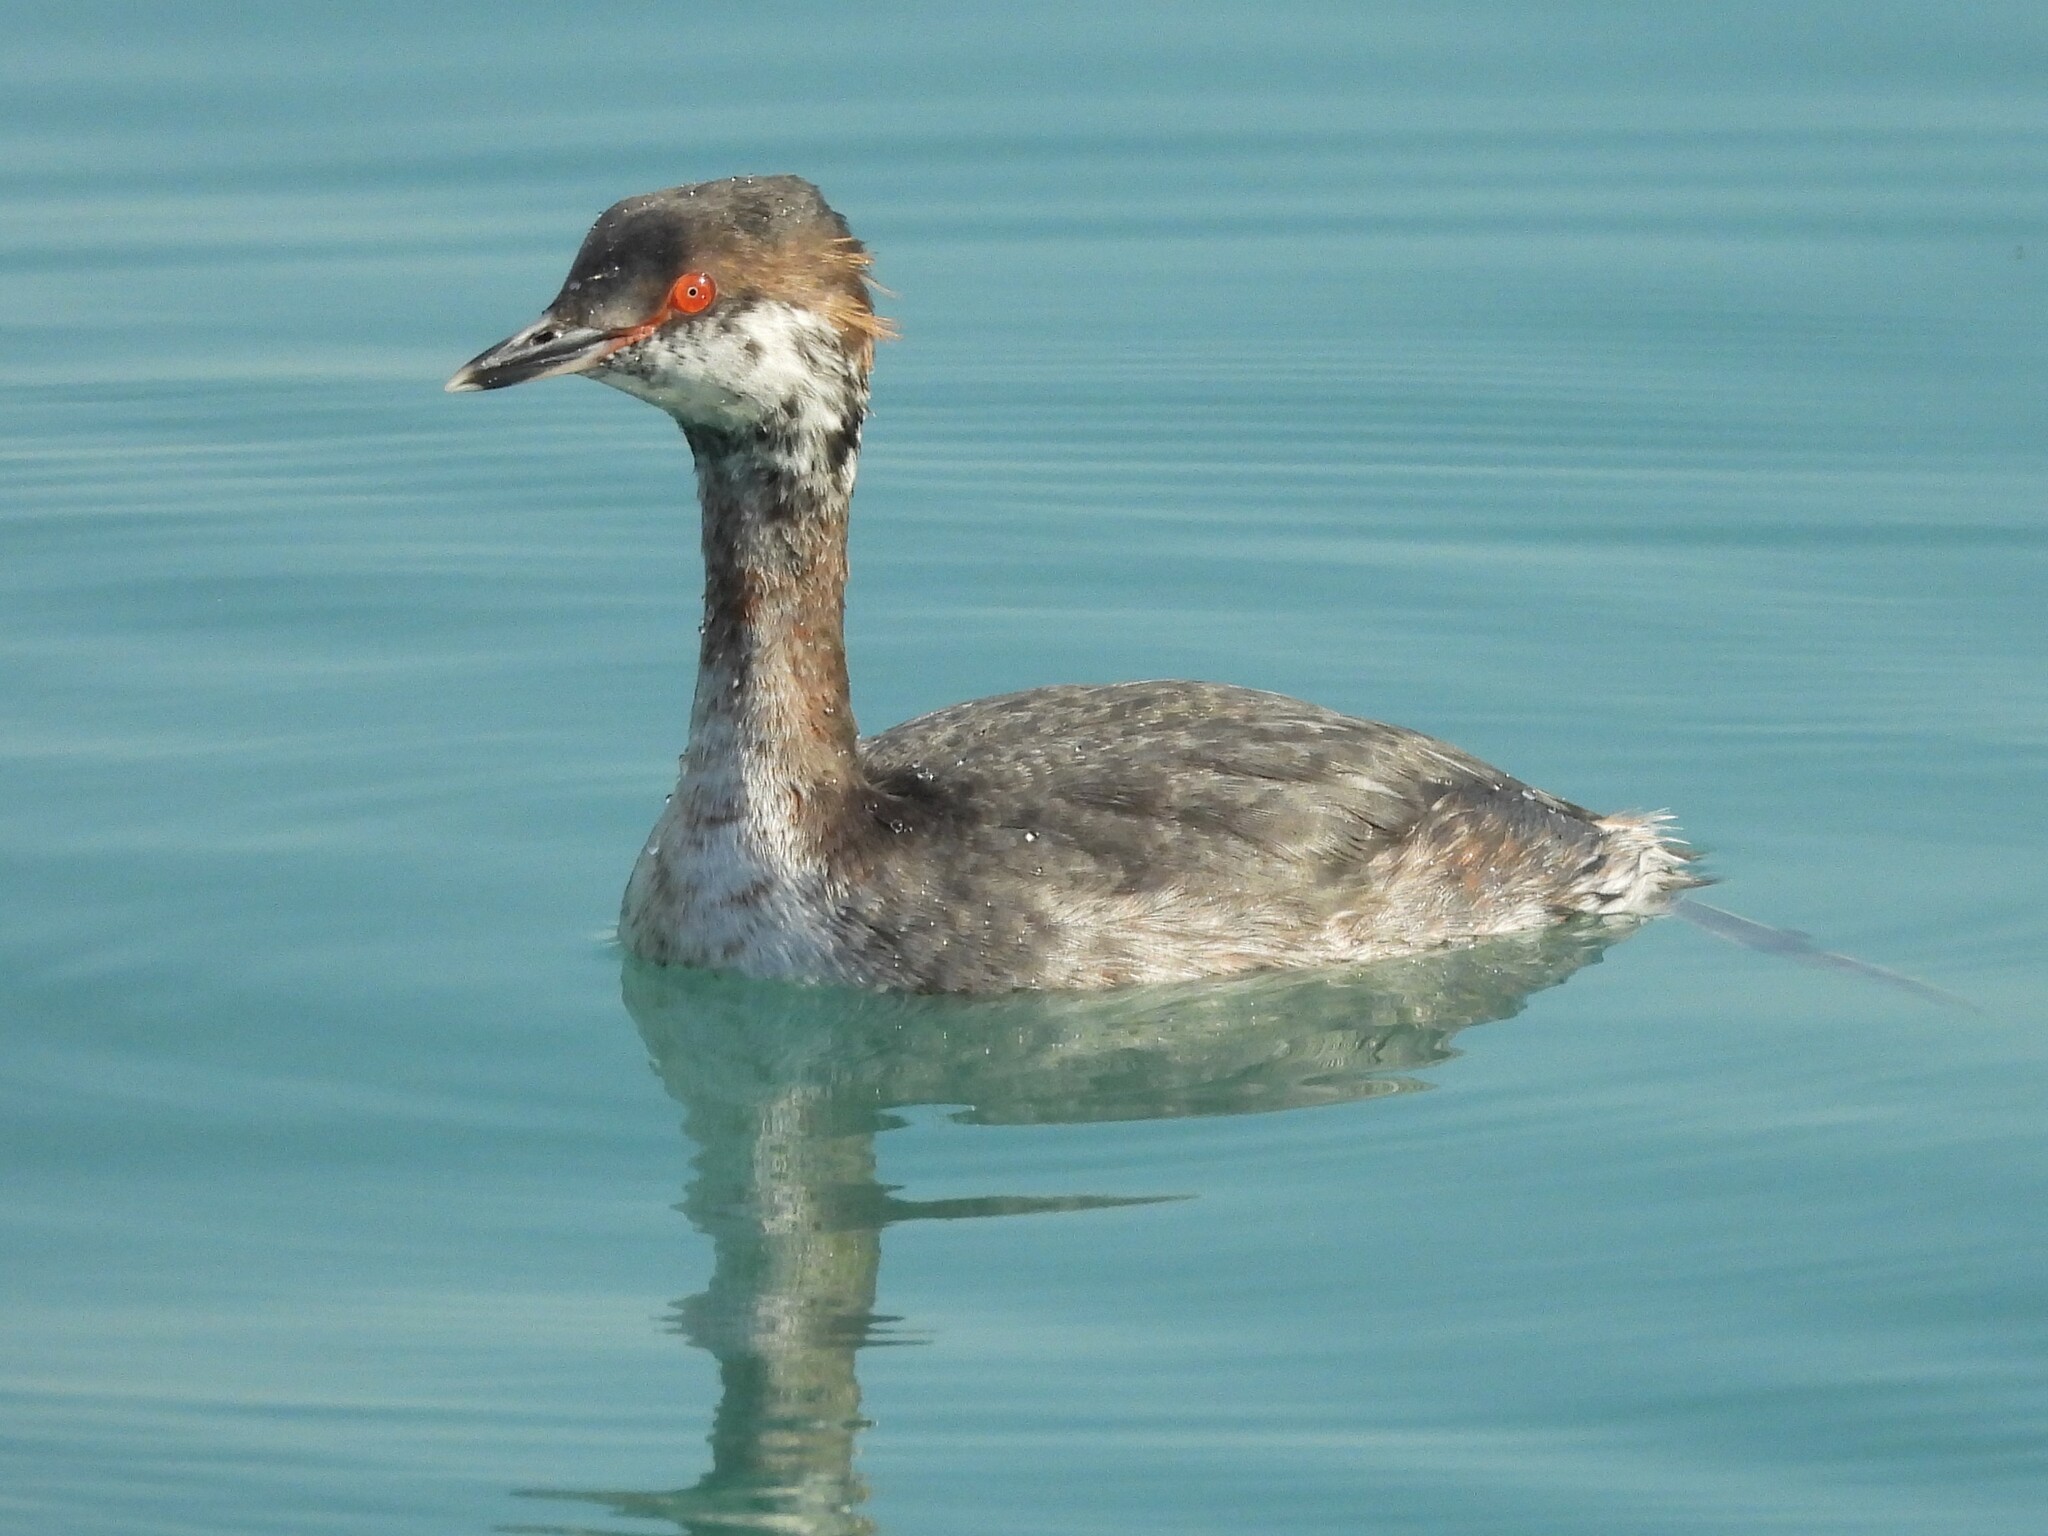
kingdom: Animalia
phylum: Chordata
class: Aves
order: Podicipediformes
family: Podicipedidae
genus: Podiceps
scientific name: Podiceps auritus
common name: Horned grebe
